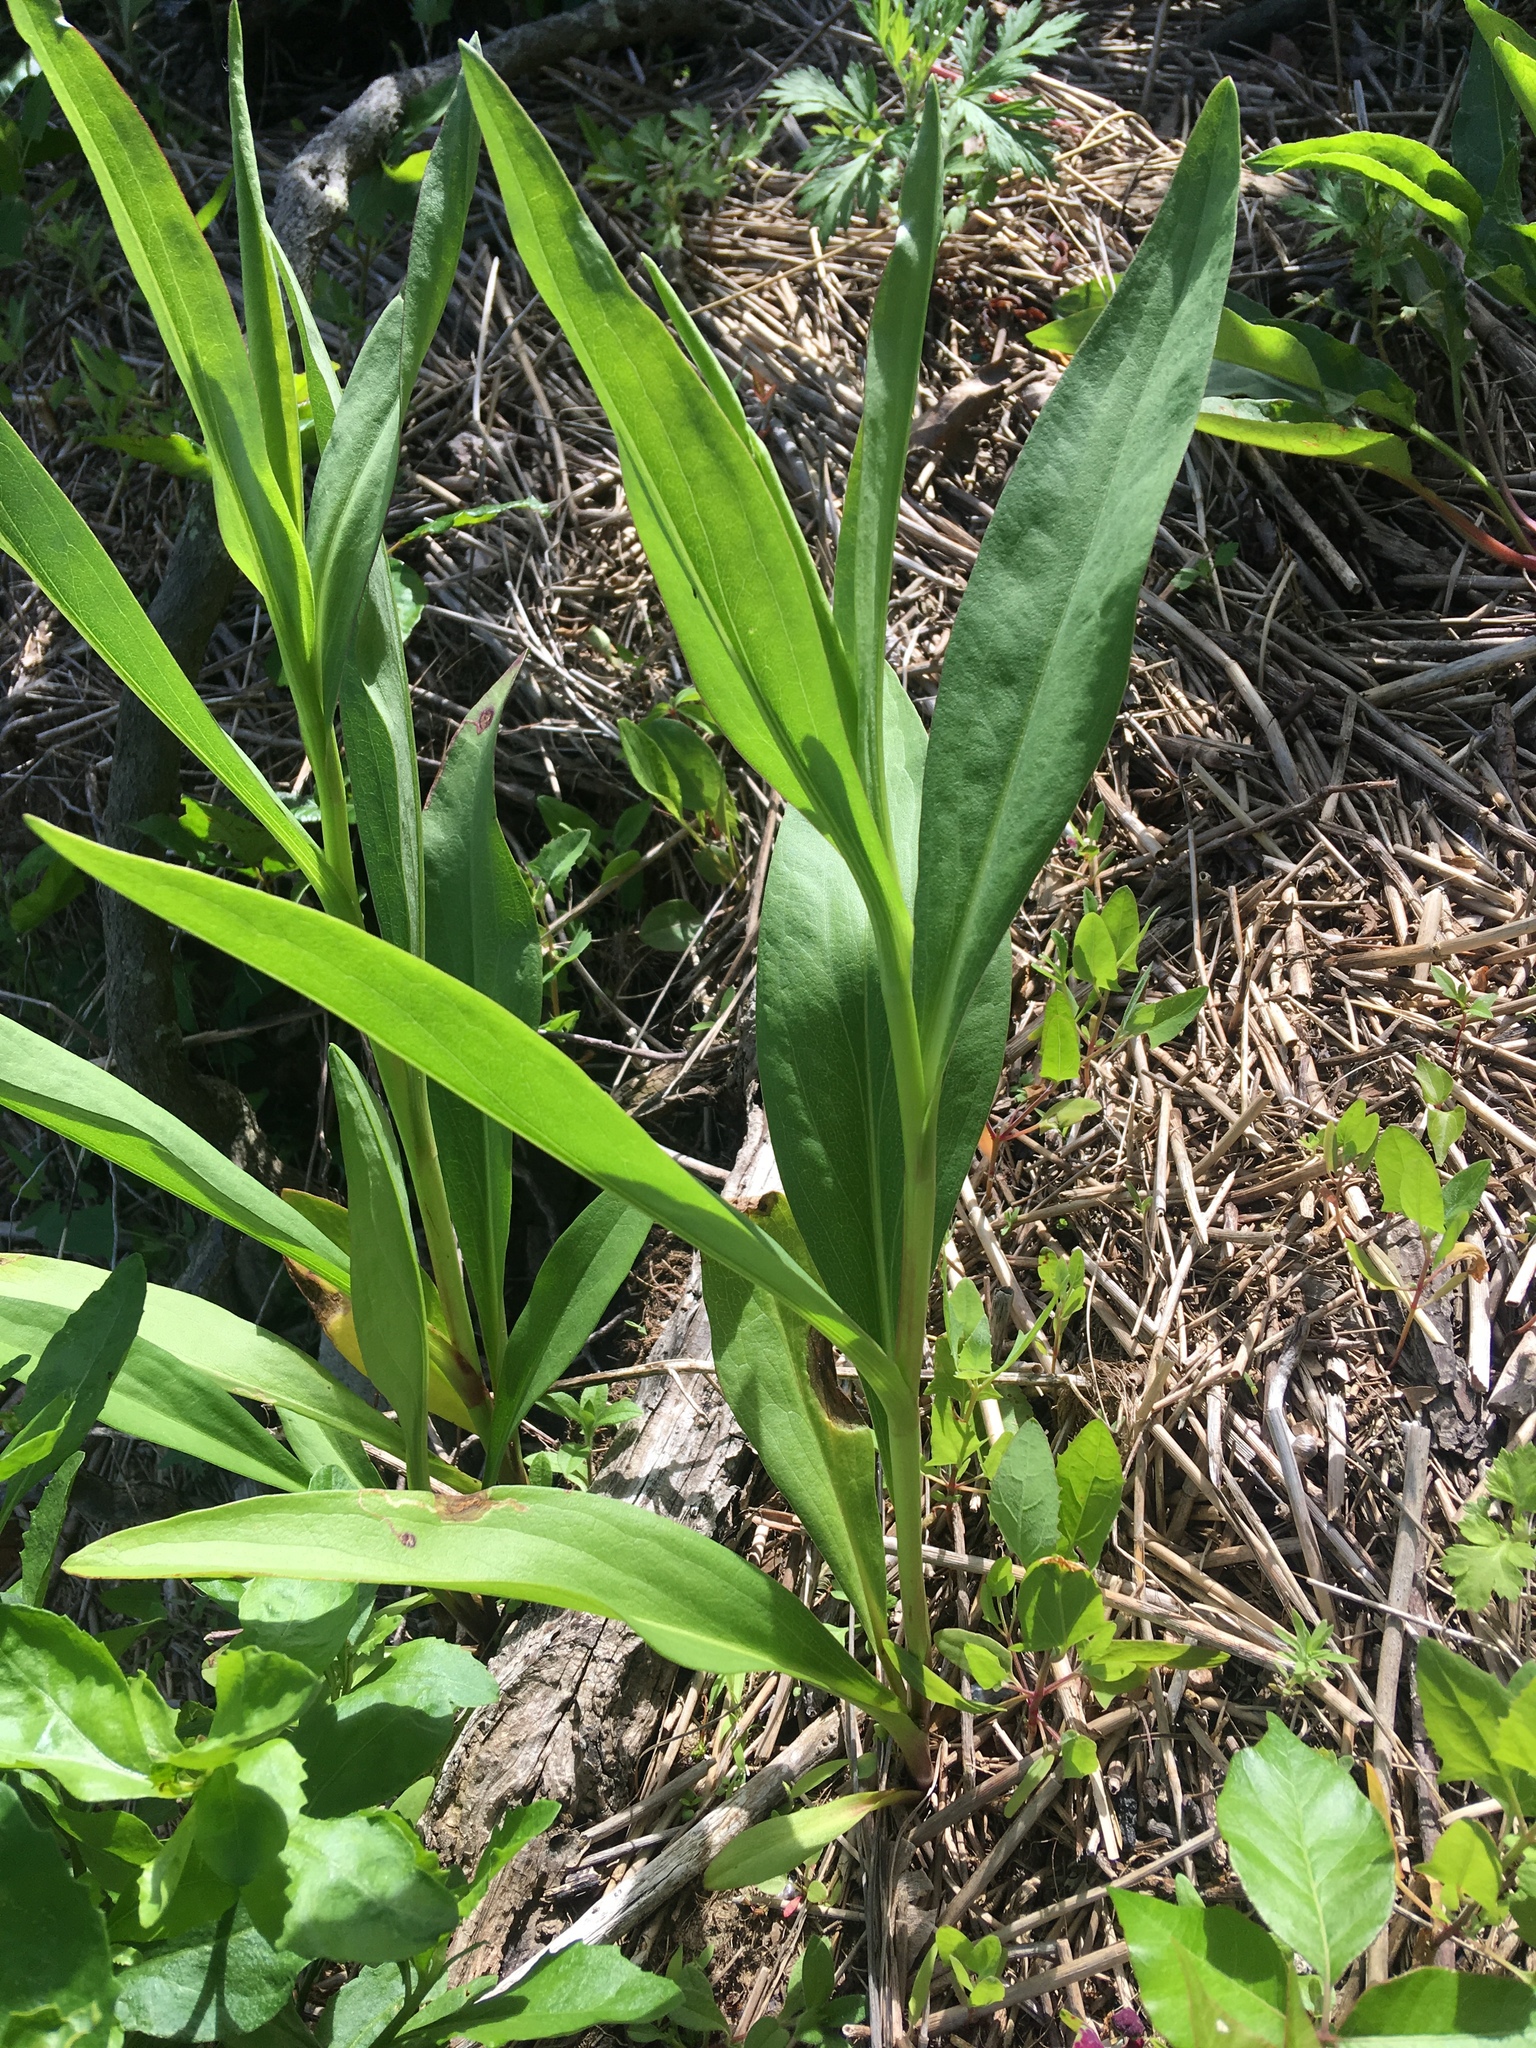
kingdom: Plantae
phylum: Tracheophyta
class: Magnoliopsida
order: Asterales
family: Asteraceae
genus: Solidago
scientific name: Solidago sempervirens
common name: Salt-marsh goldenrod
